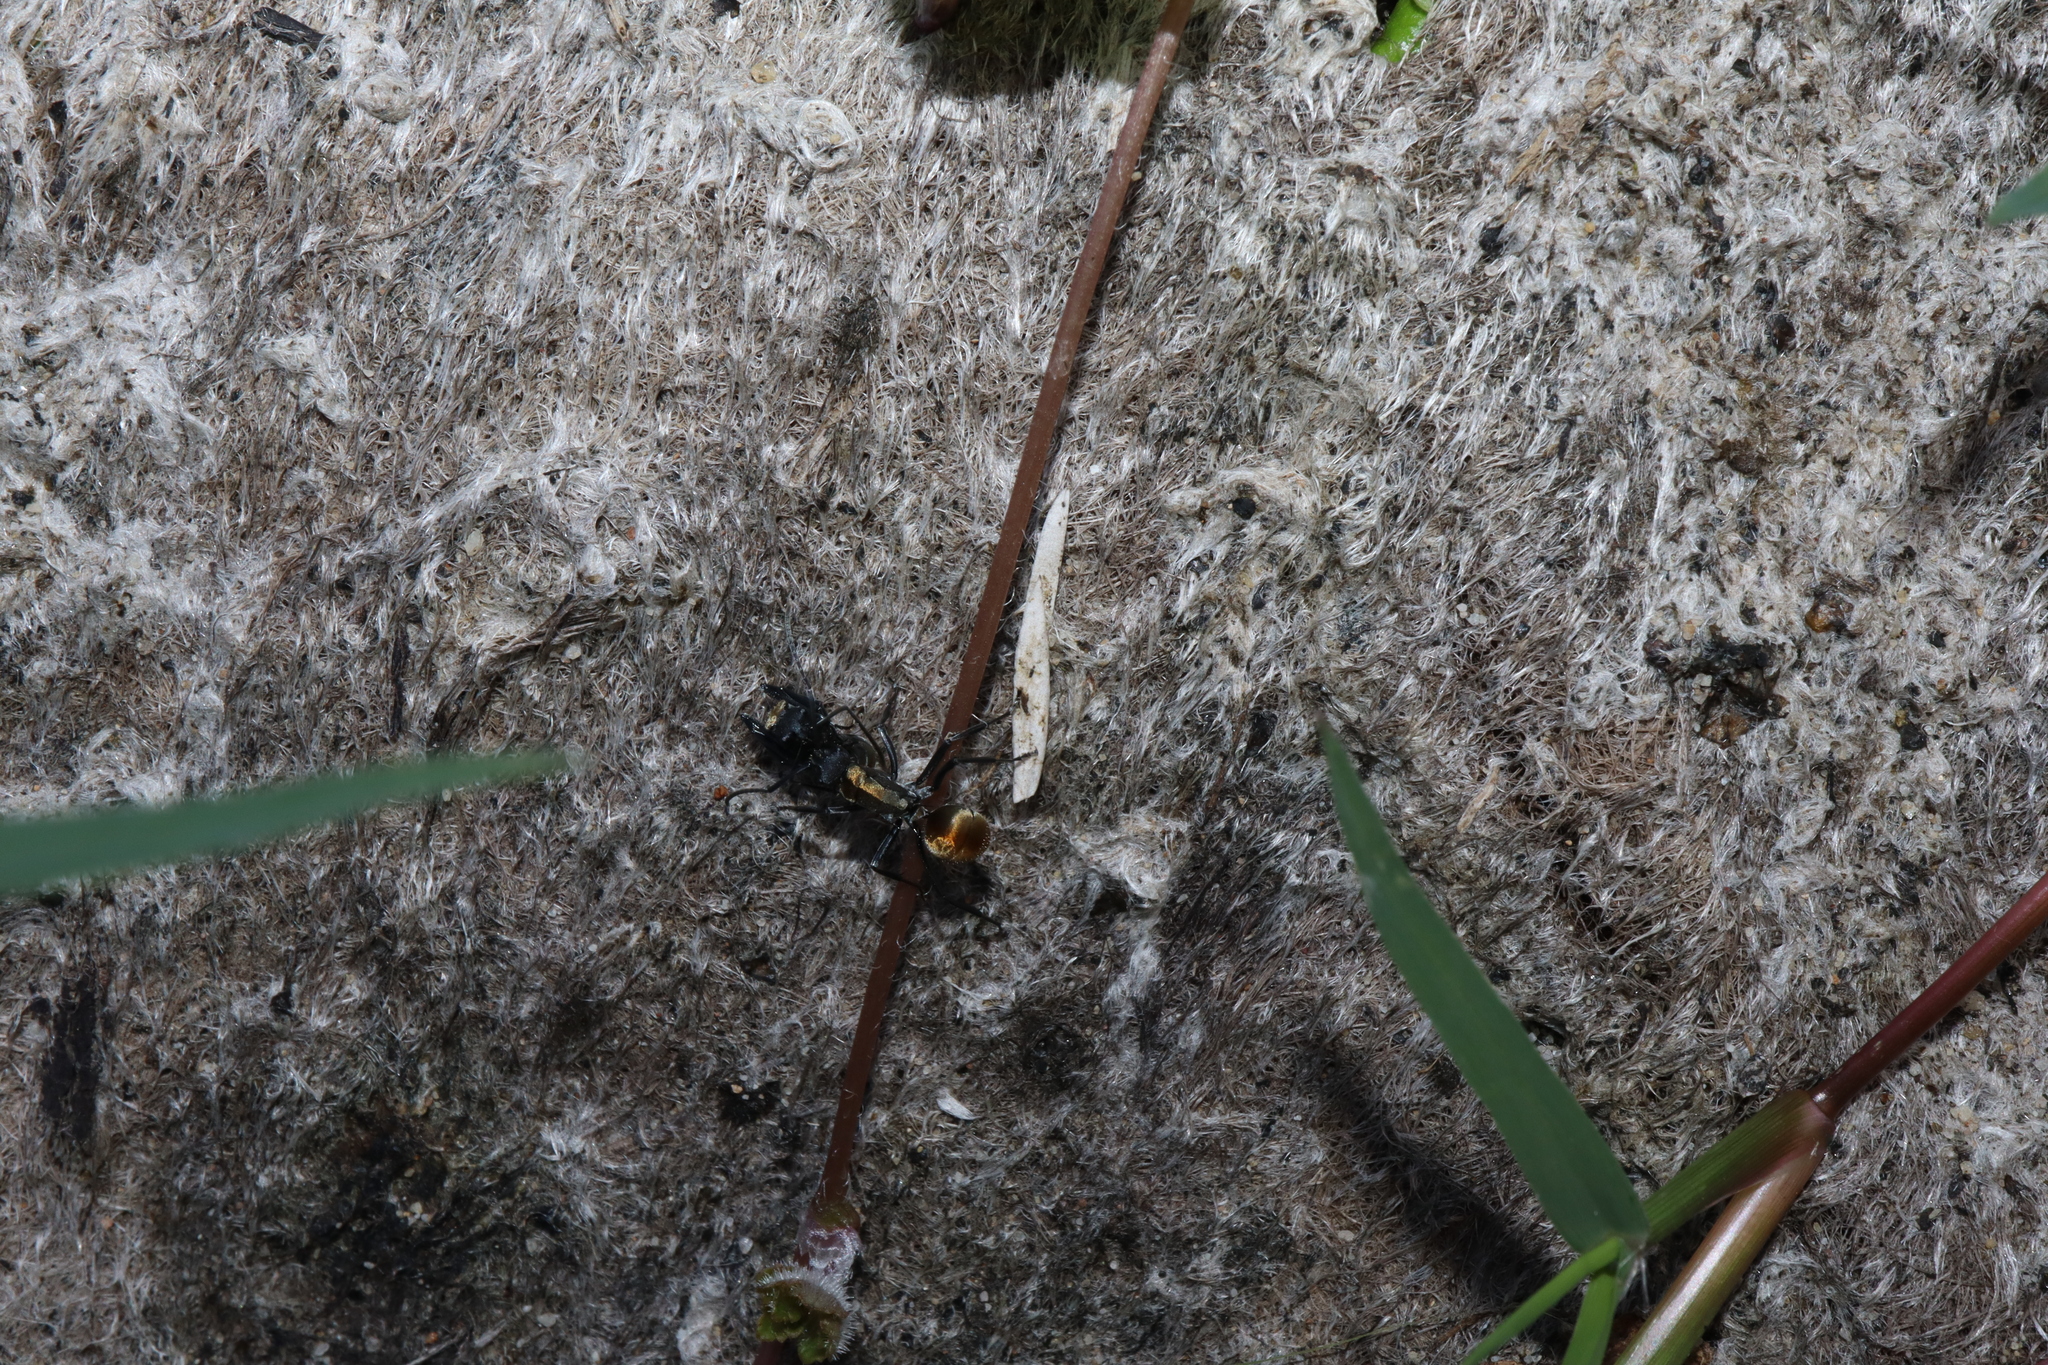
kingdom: Animalia
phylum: Arthropoda
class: Insecta
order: Hymenoptera
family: Formicidae
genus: Polyrhachis
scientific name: Polyrhachis ammon
